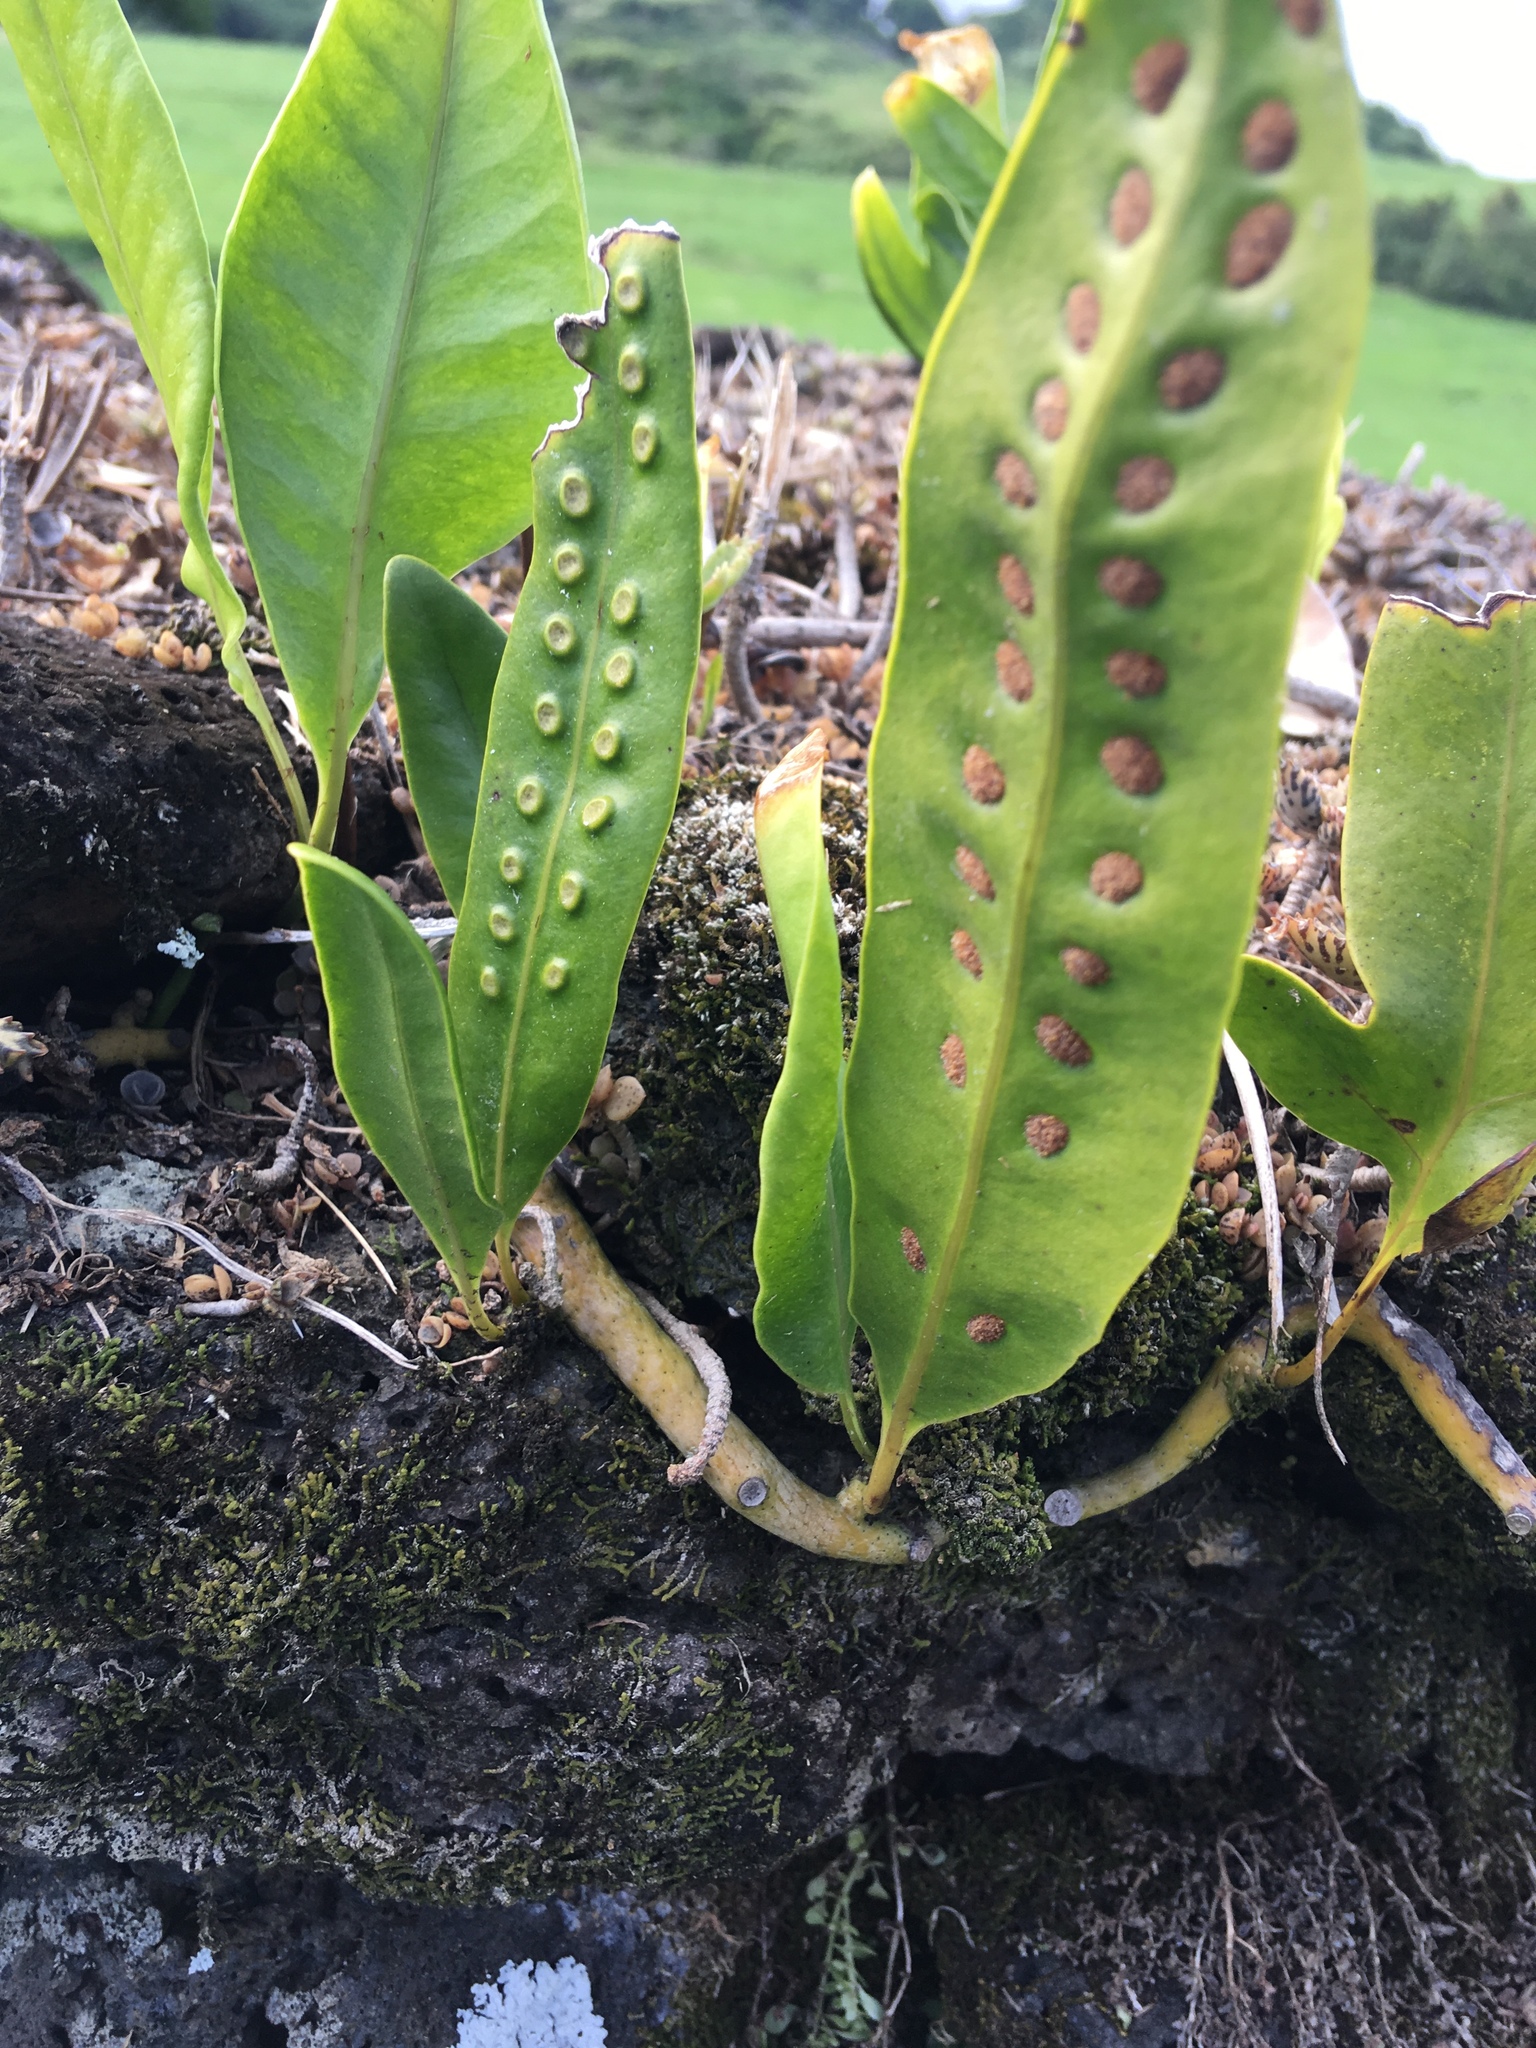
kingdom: Plantae
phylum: Tracheophyta
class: Polypodiopsida
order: Polypodiales
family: Polypodiaceae
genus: Microsorum
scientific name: Microsorum grossum
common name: Musk fern
